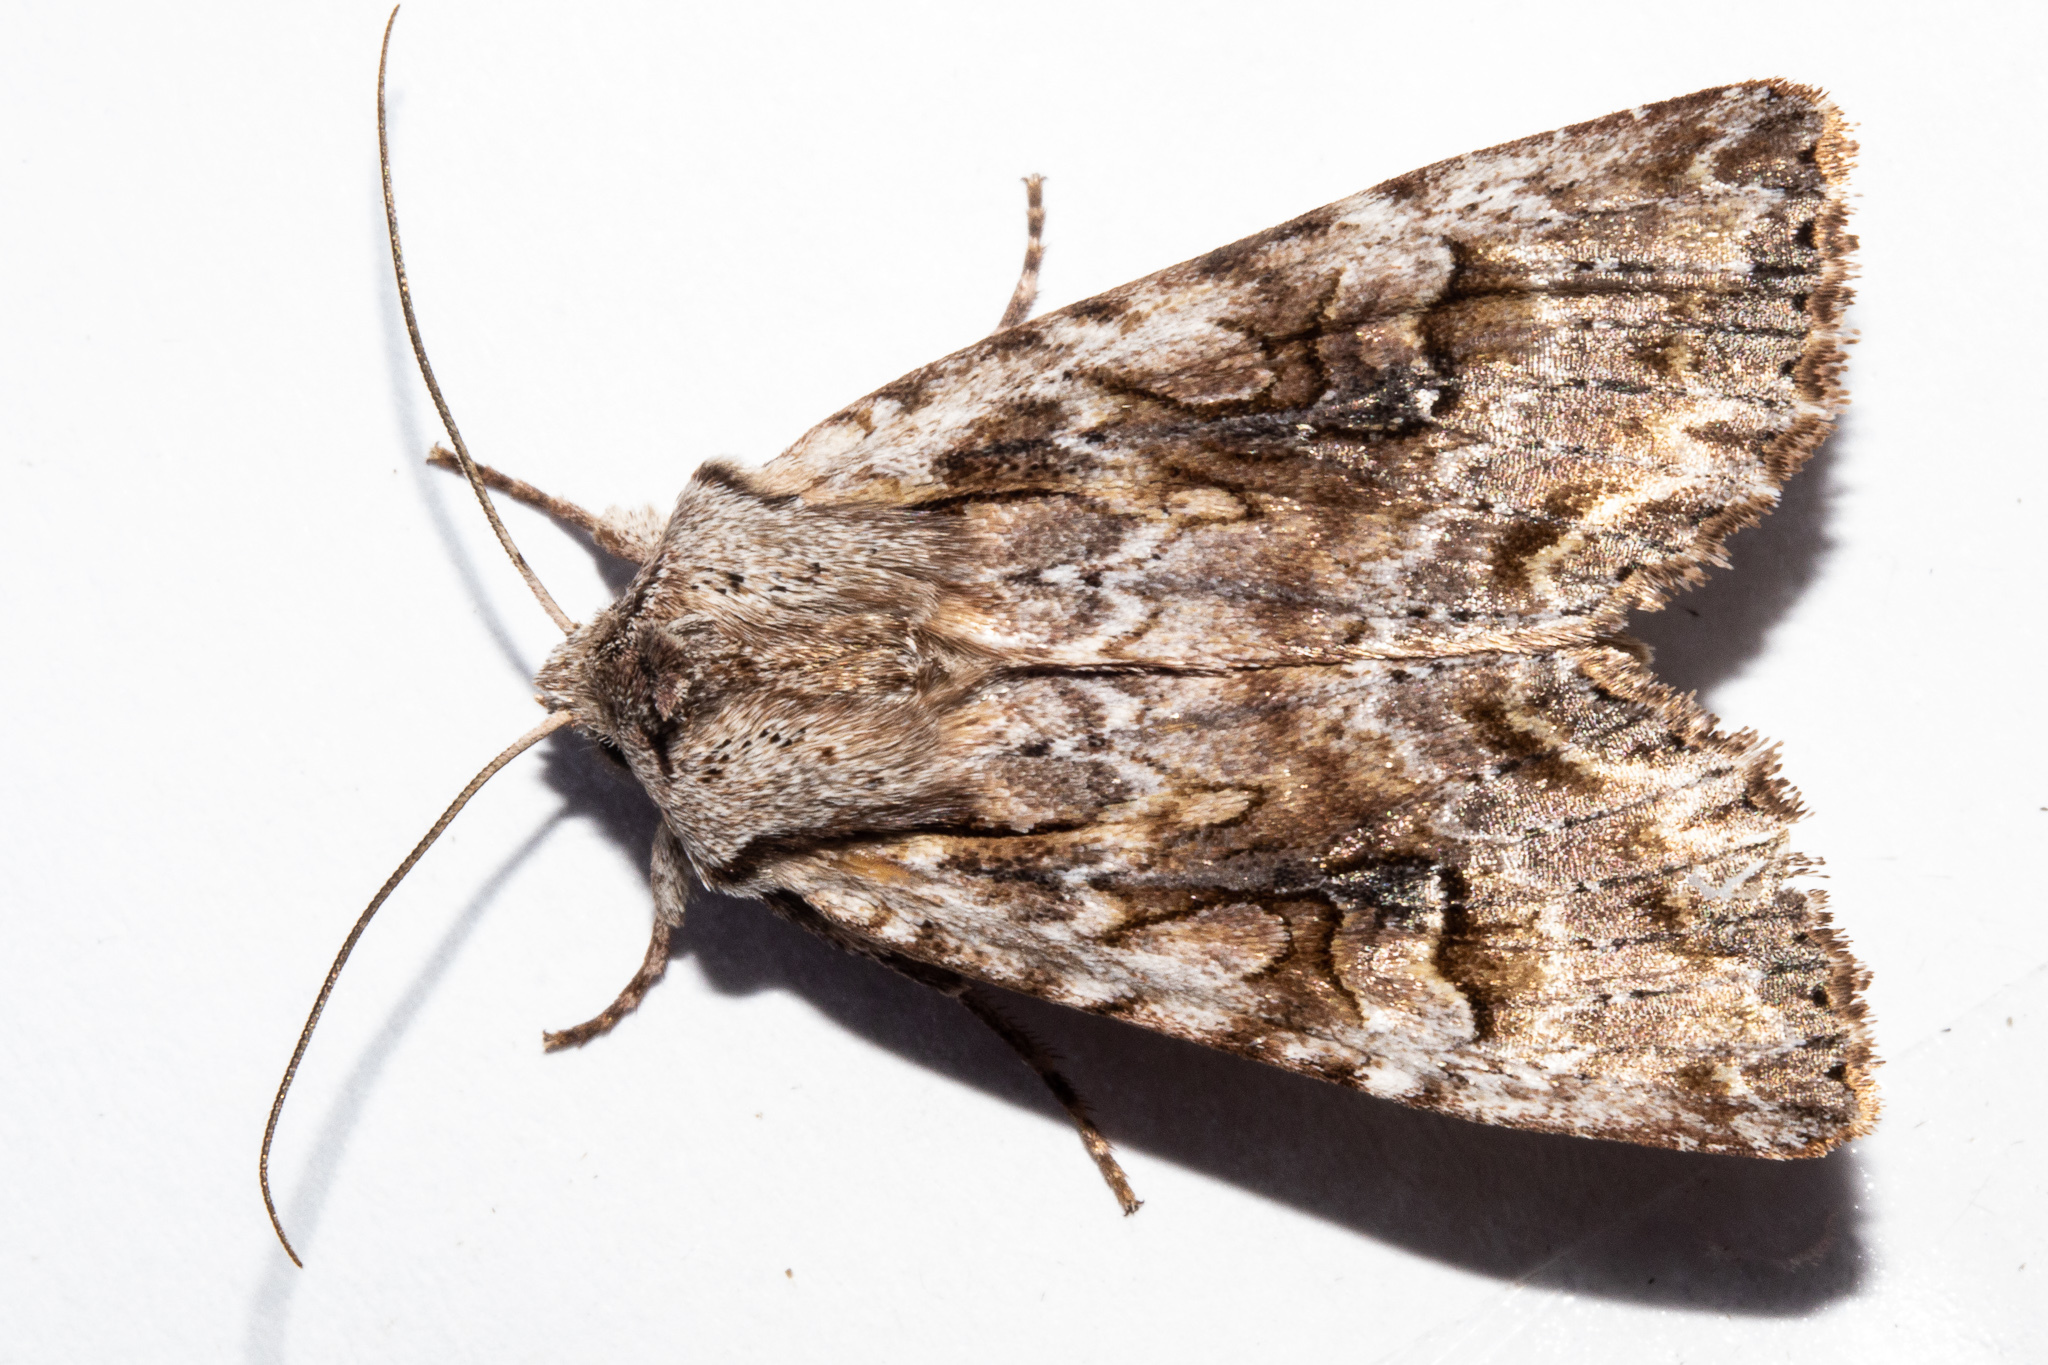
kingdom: Animalia
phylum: Arthropoda
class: Insecta
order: Lepidoptera
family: Noctuidae
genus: Ichneutica
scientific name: Ichneutica lindsayorum
